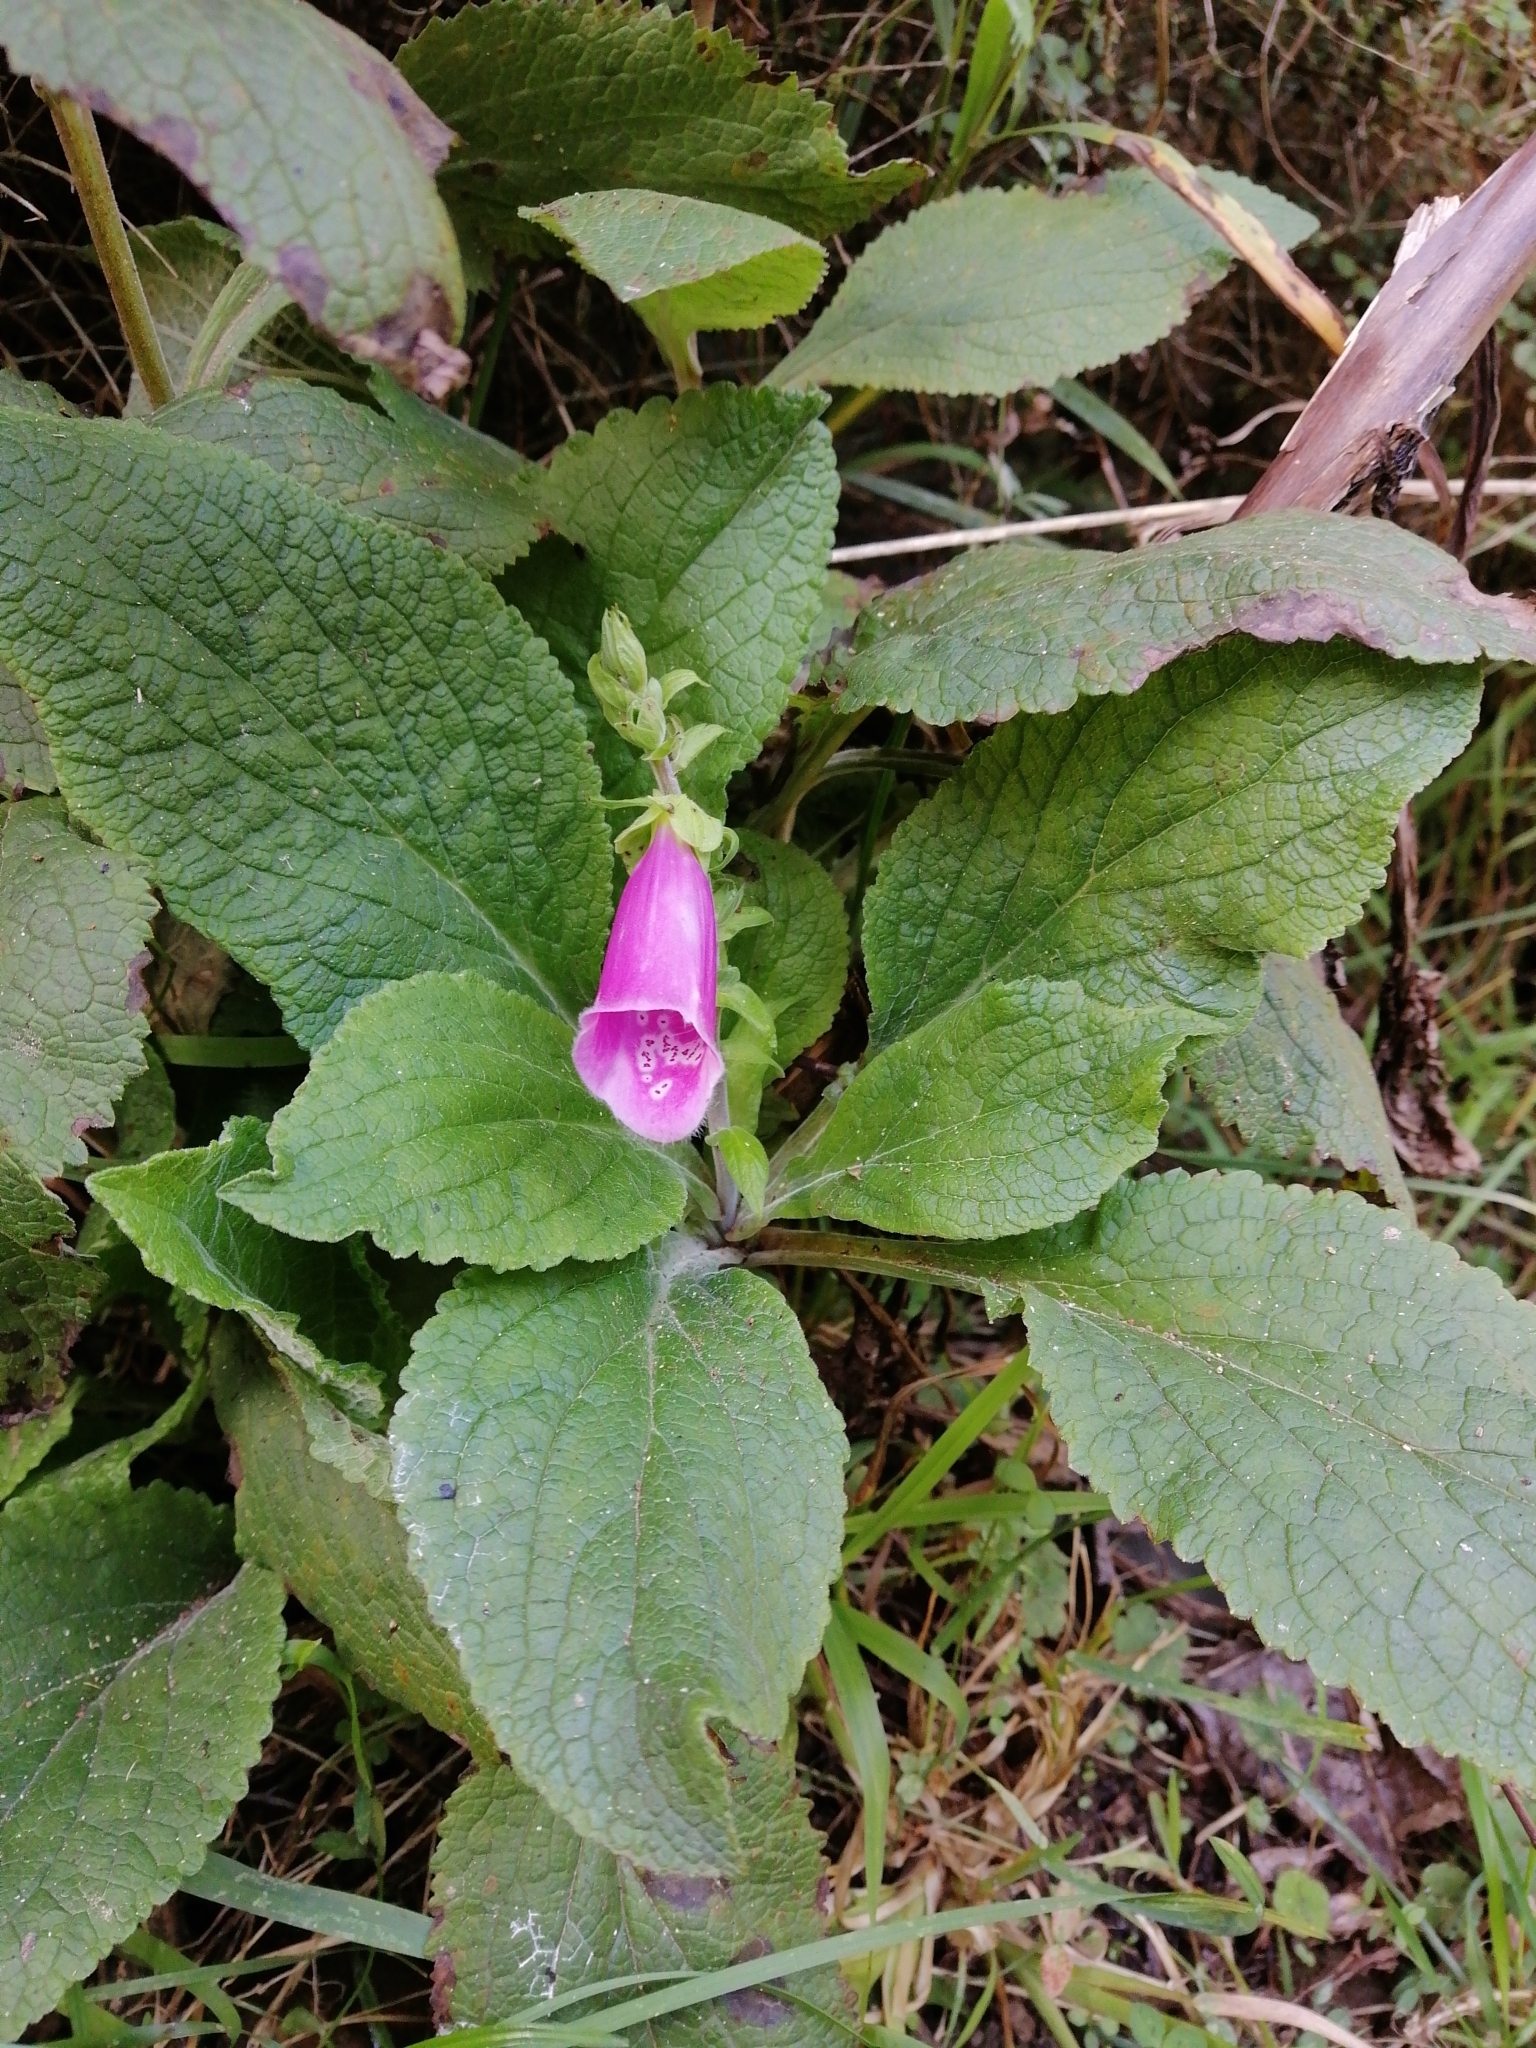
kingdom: Plantae
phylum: Tracheophyta
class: Magnoliopsida
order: Lamiales
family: Plantaginaceae
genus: Digitalis
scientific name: Digitalis purpurea
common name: Foxglove
